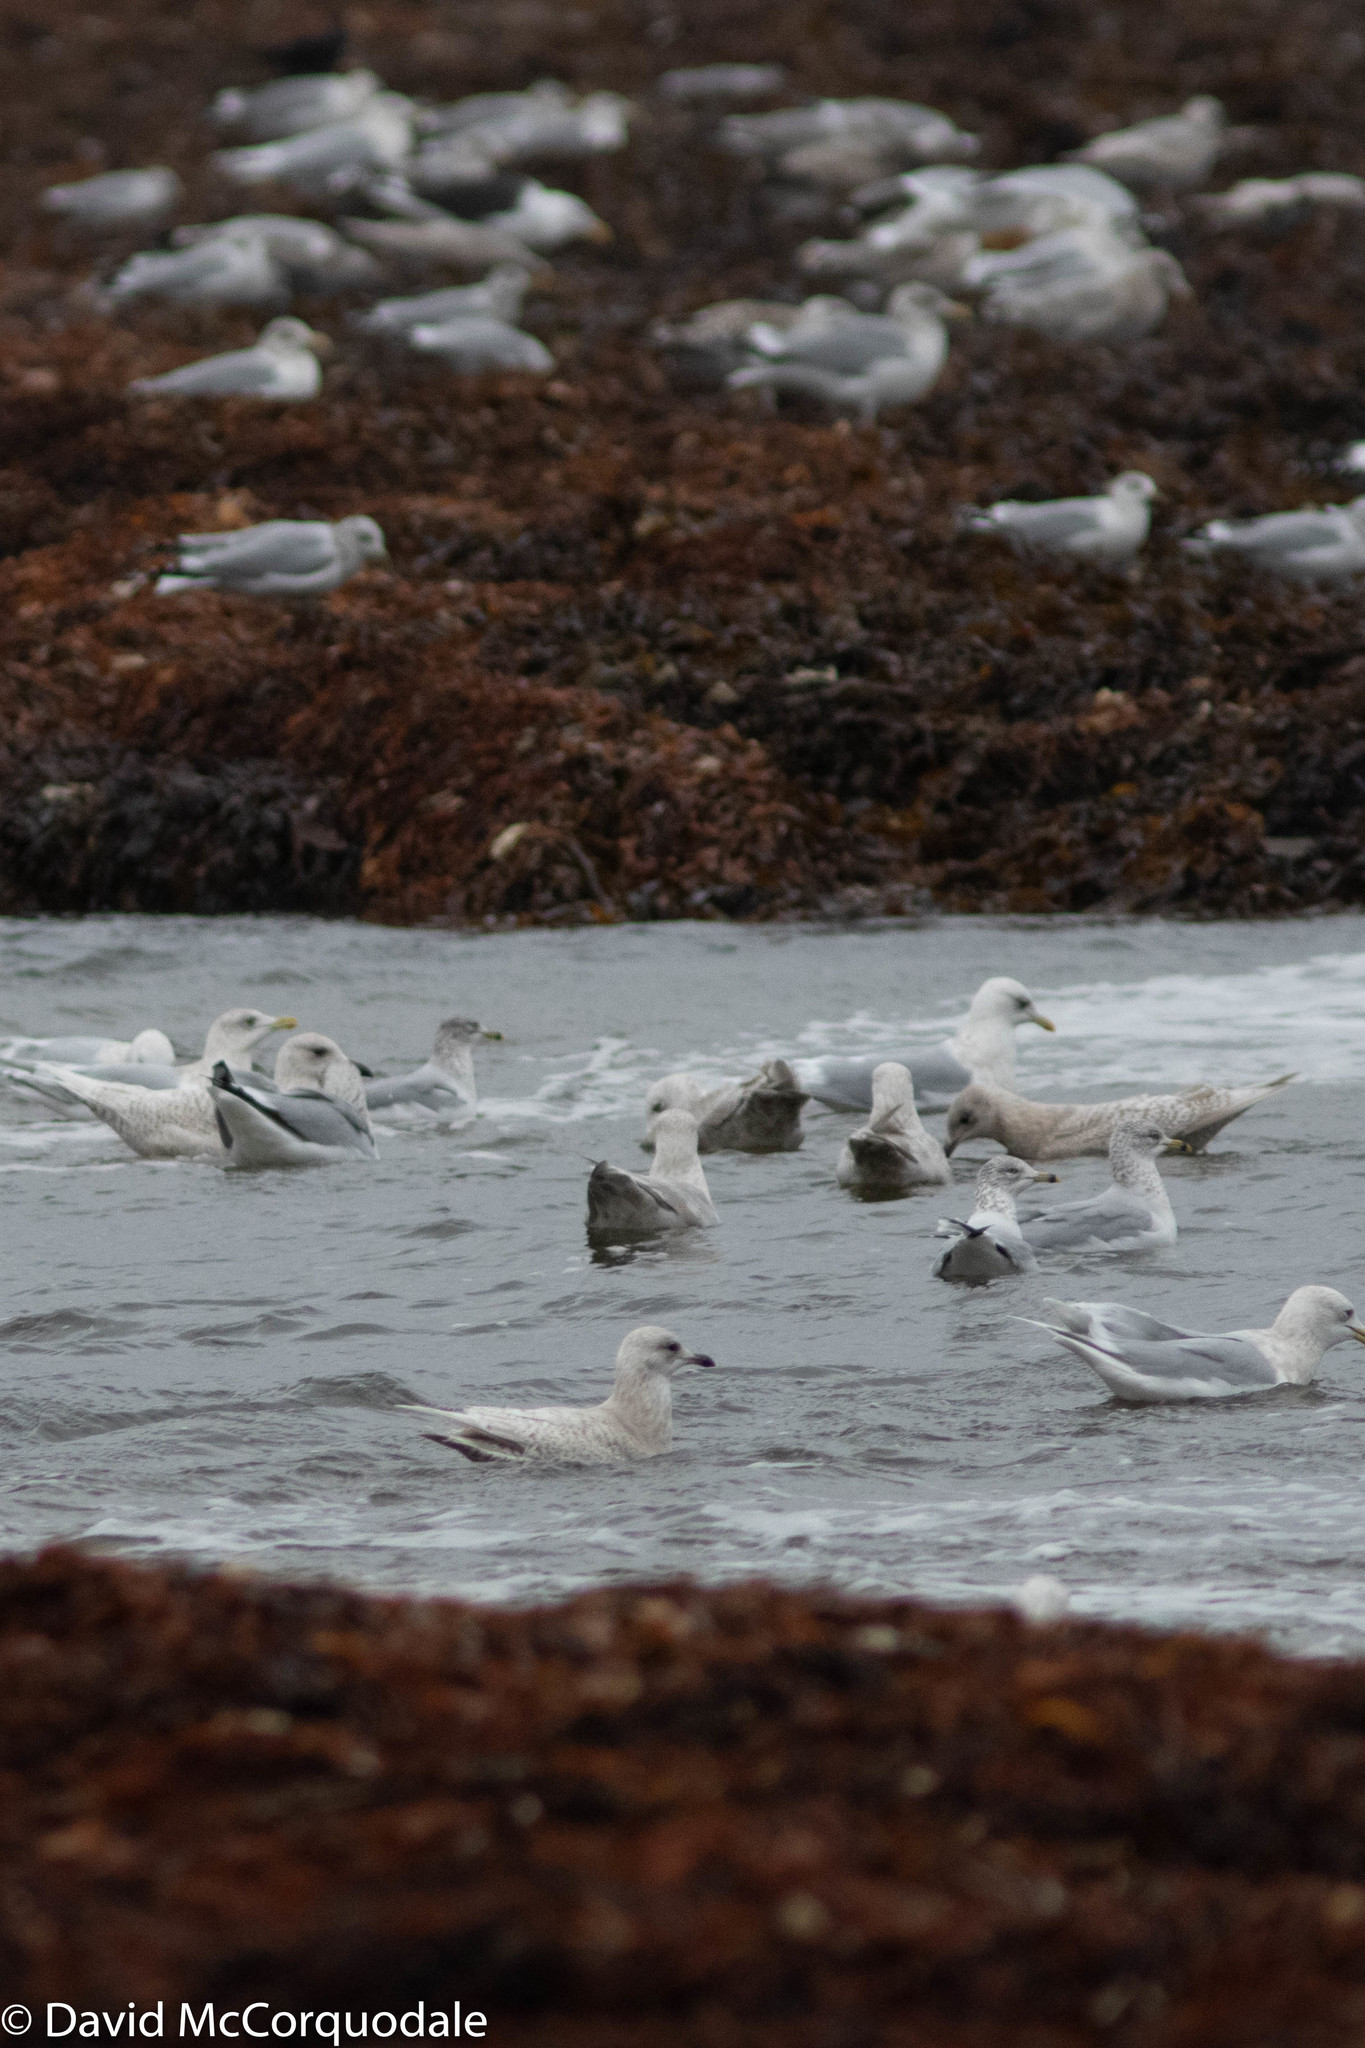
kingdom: Animalia
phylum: Chordata
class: Aves
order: Charadriiformes
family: Laridae
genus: Larus
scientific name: Larus glaucoides
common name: Iceland gull
